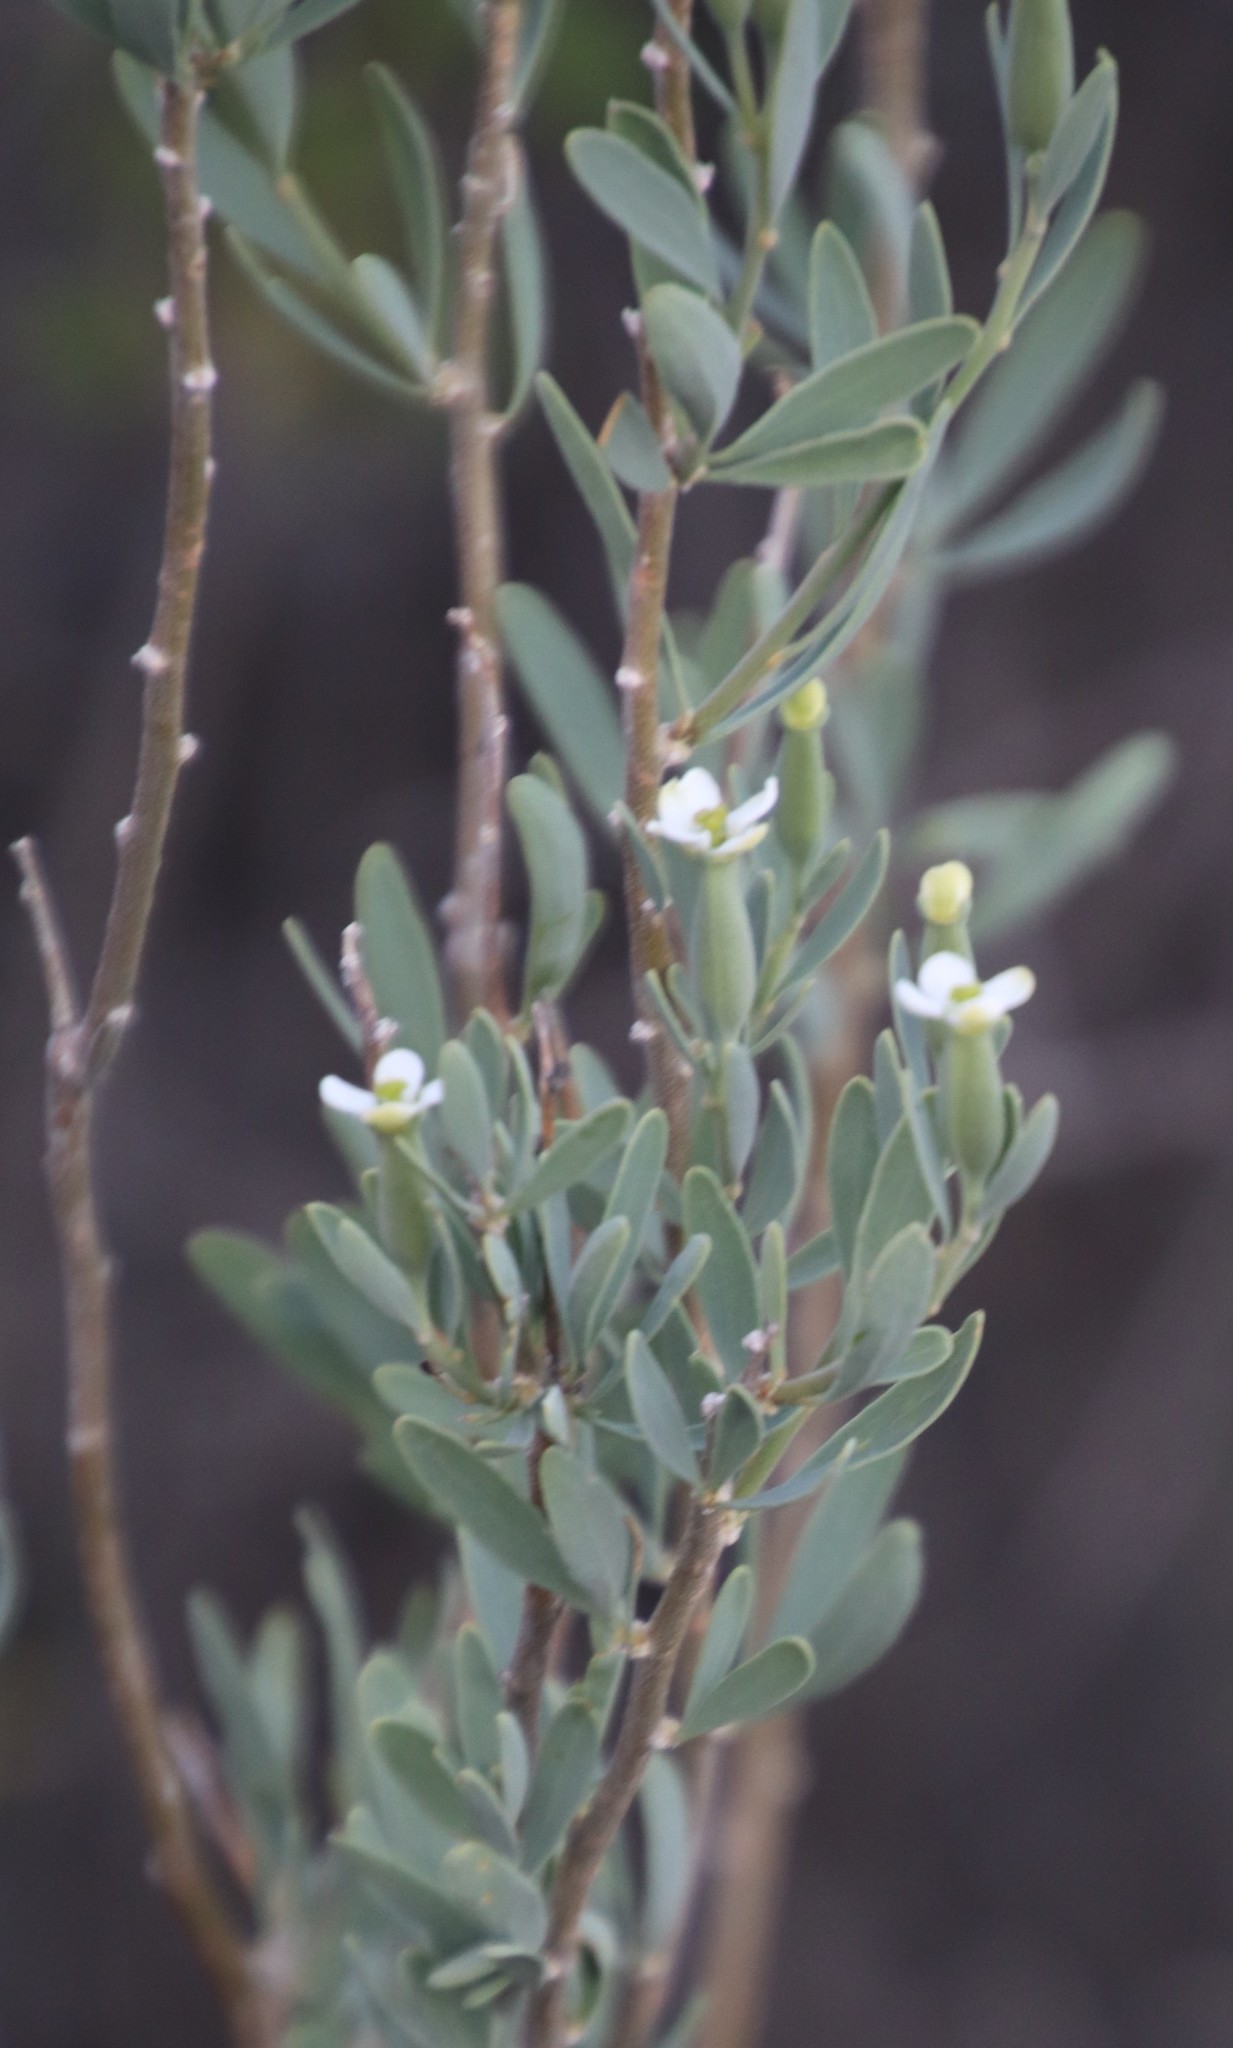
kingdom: Plantae
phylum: Tracheophyta
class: Magnoliopsida
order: Solanales
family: Montiniaceae
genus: Montinia
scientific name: Montinia caryophyllacea
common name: Wild clove-bush
